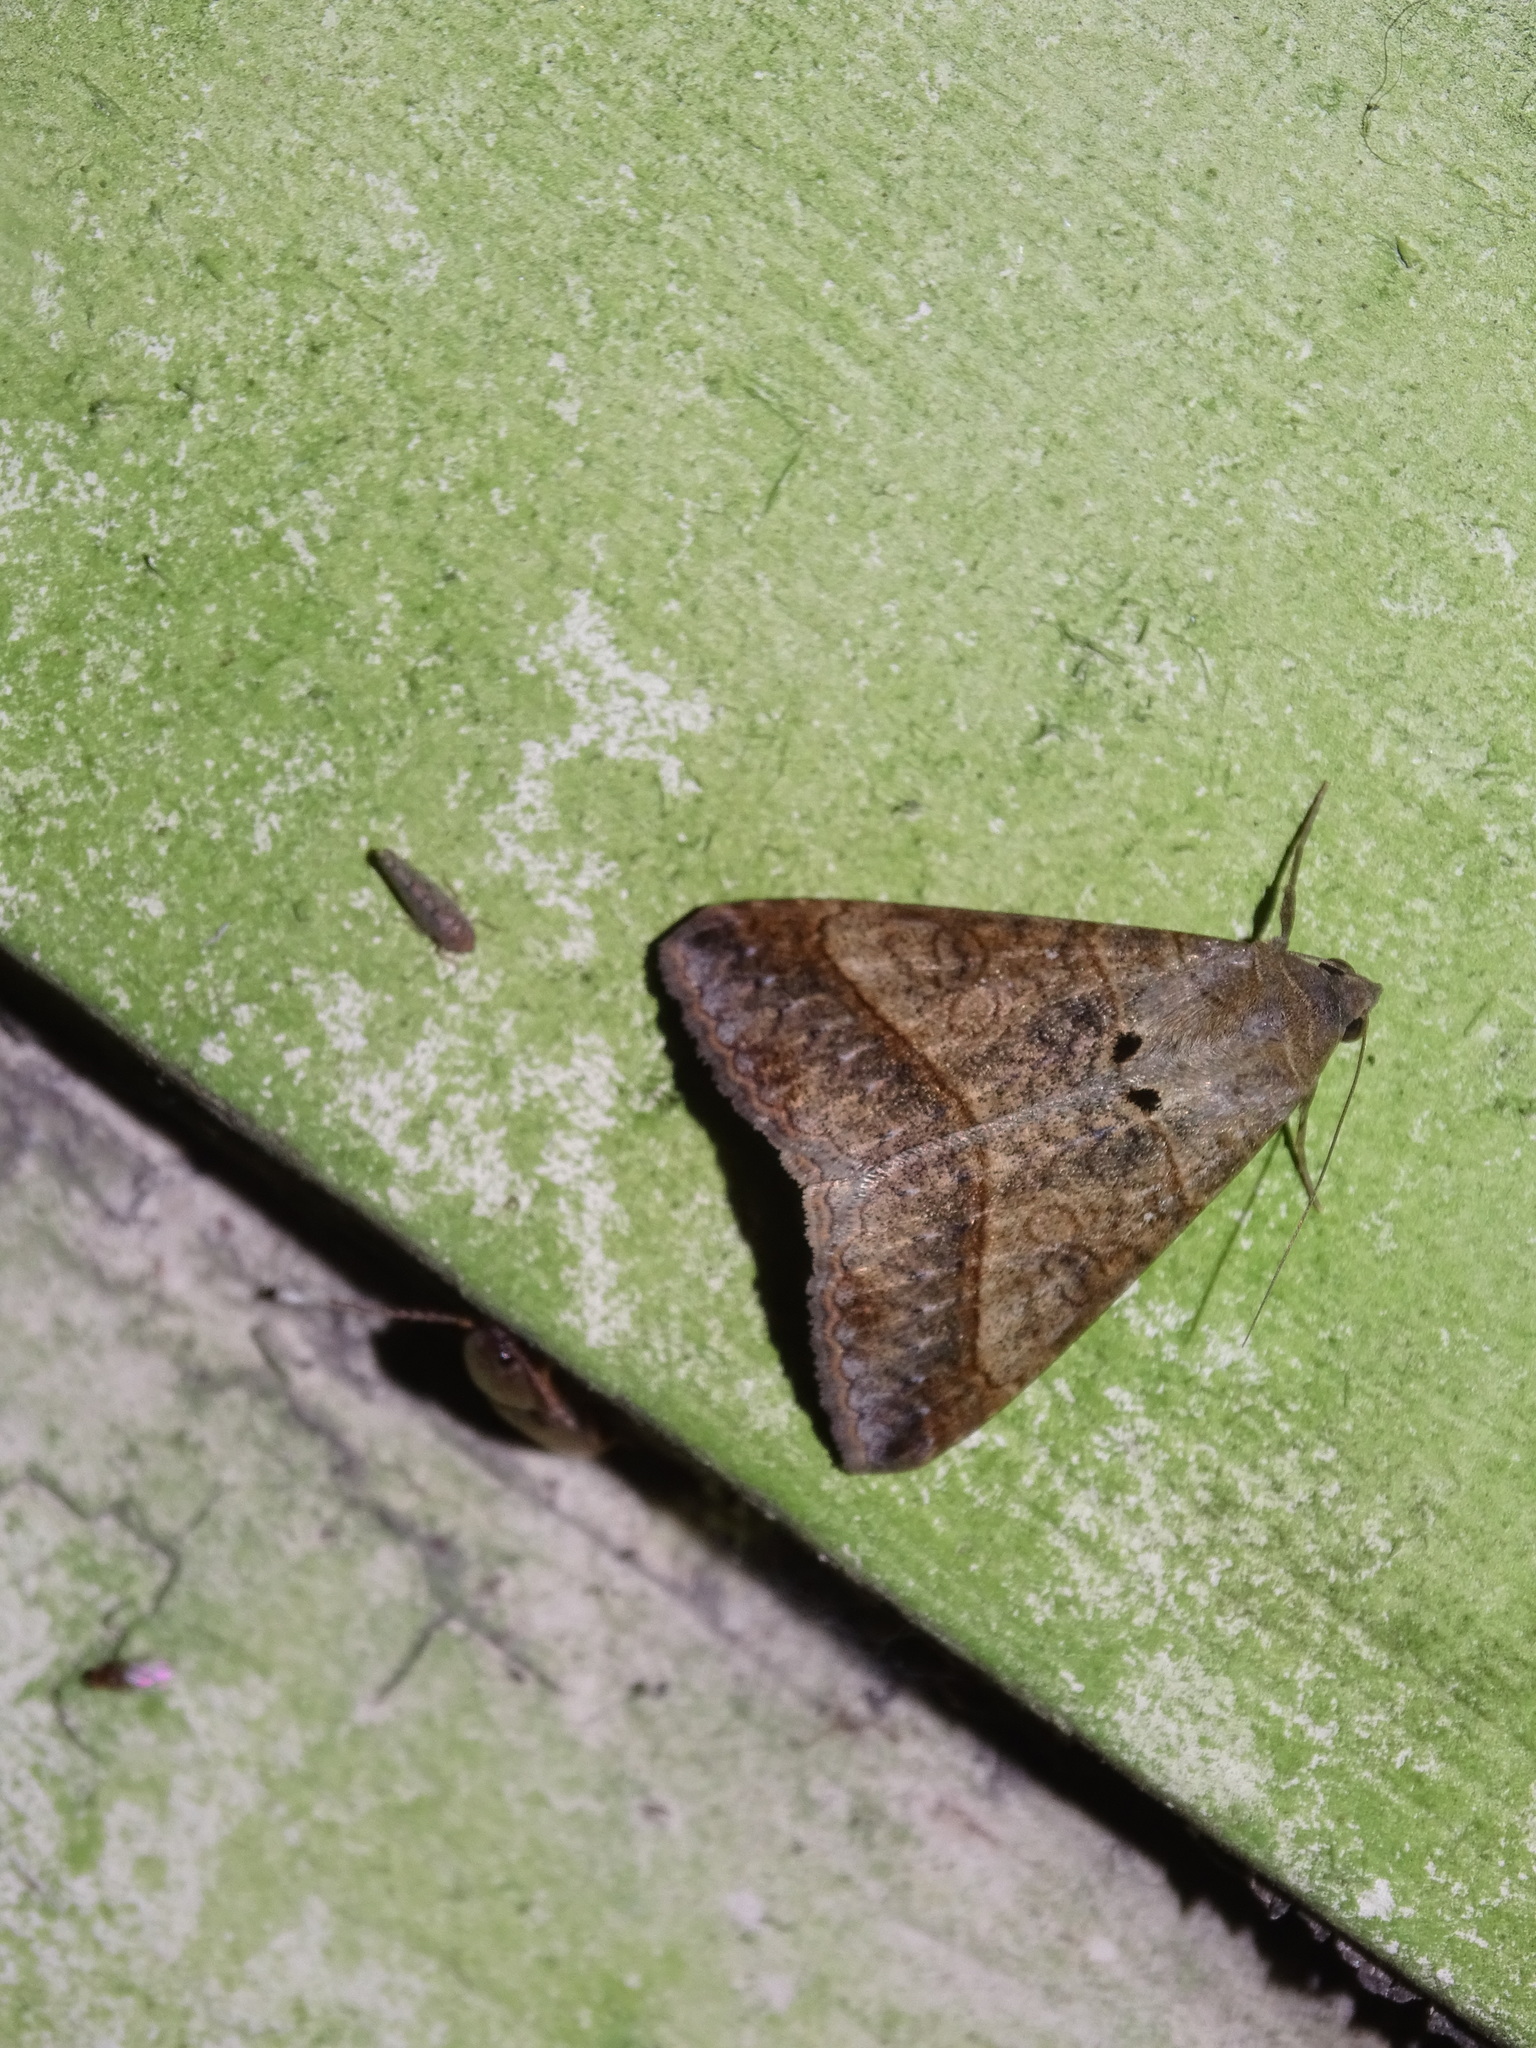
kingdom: Animalia
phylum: Arthropoda
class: Insecta
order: Lepidoptera
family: Erebidae
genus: Mocis
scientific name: Mocis latipes
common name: Striped grass looper
